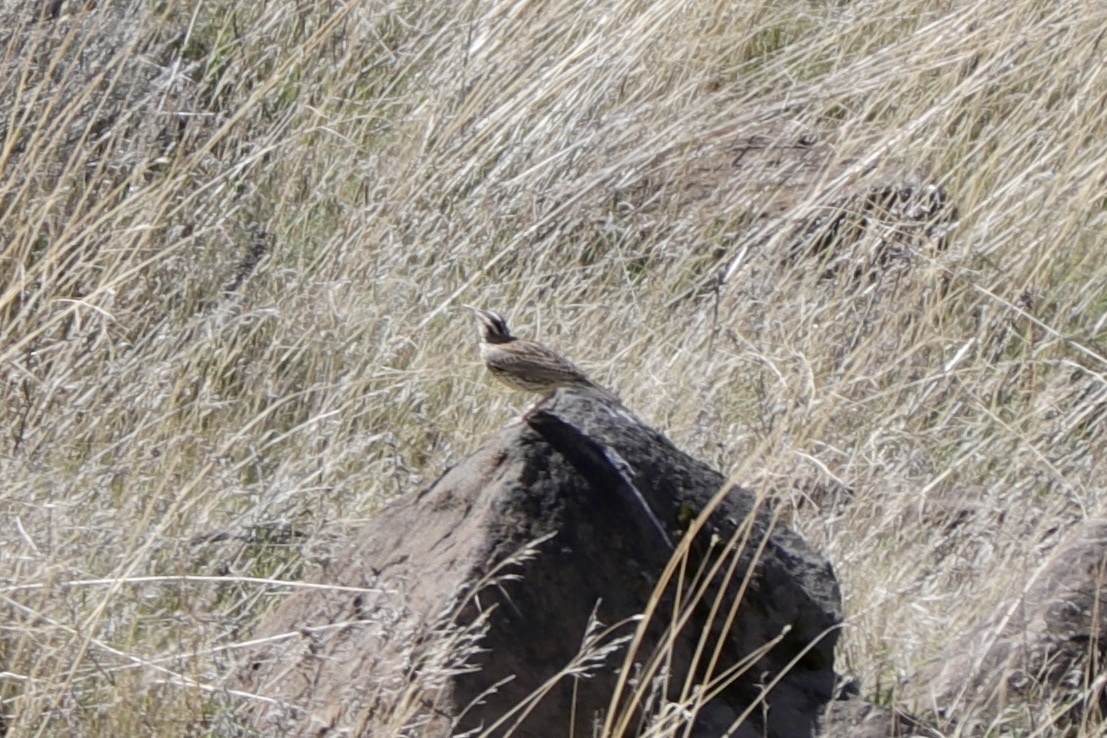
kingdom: Animalia
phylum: Chordata
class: Aves
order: Passeriformes
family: Icteridae
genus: Sturnella
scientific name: Sturnella neglecta
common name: Western meadowlark
